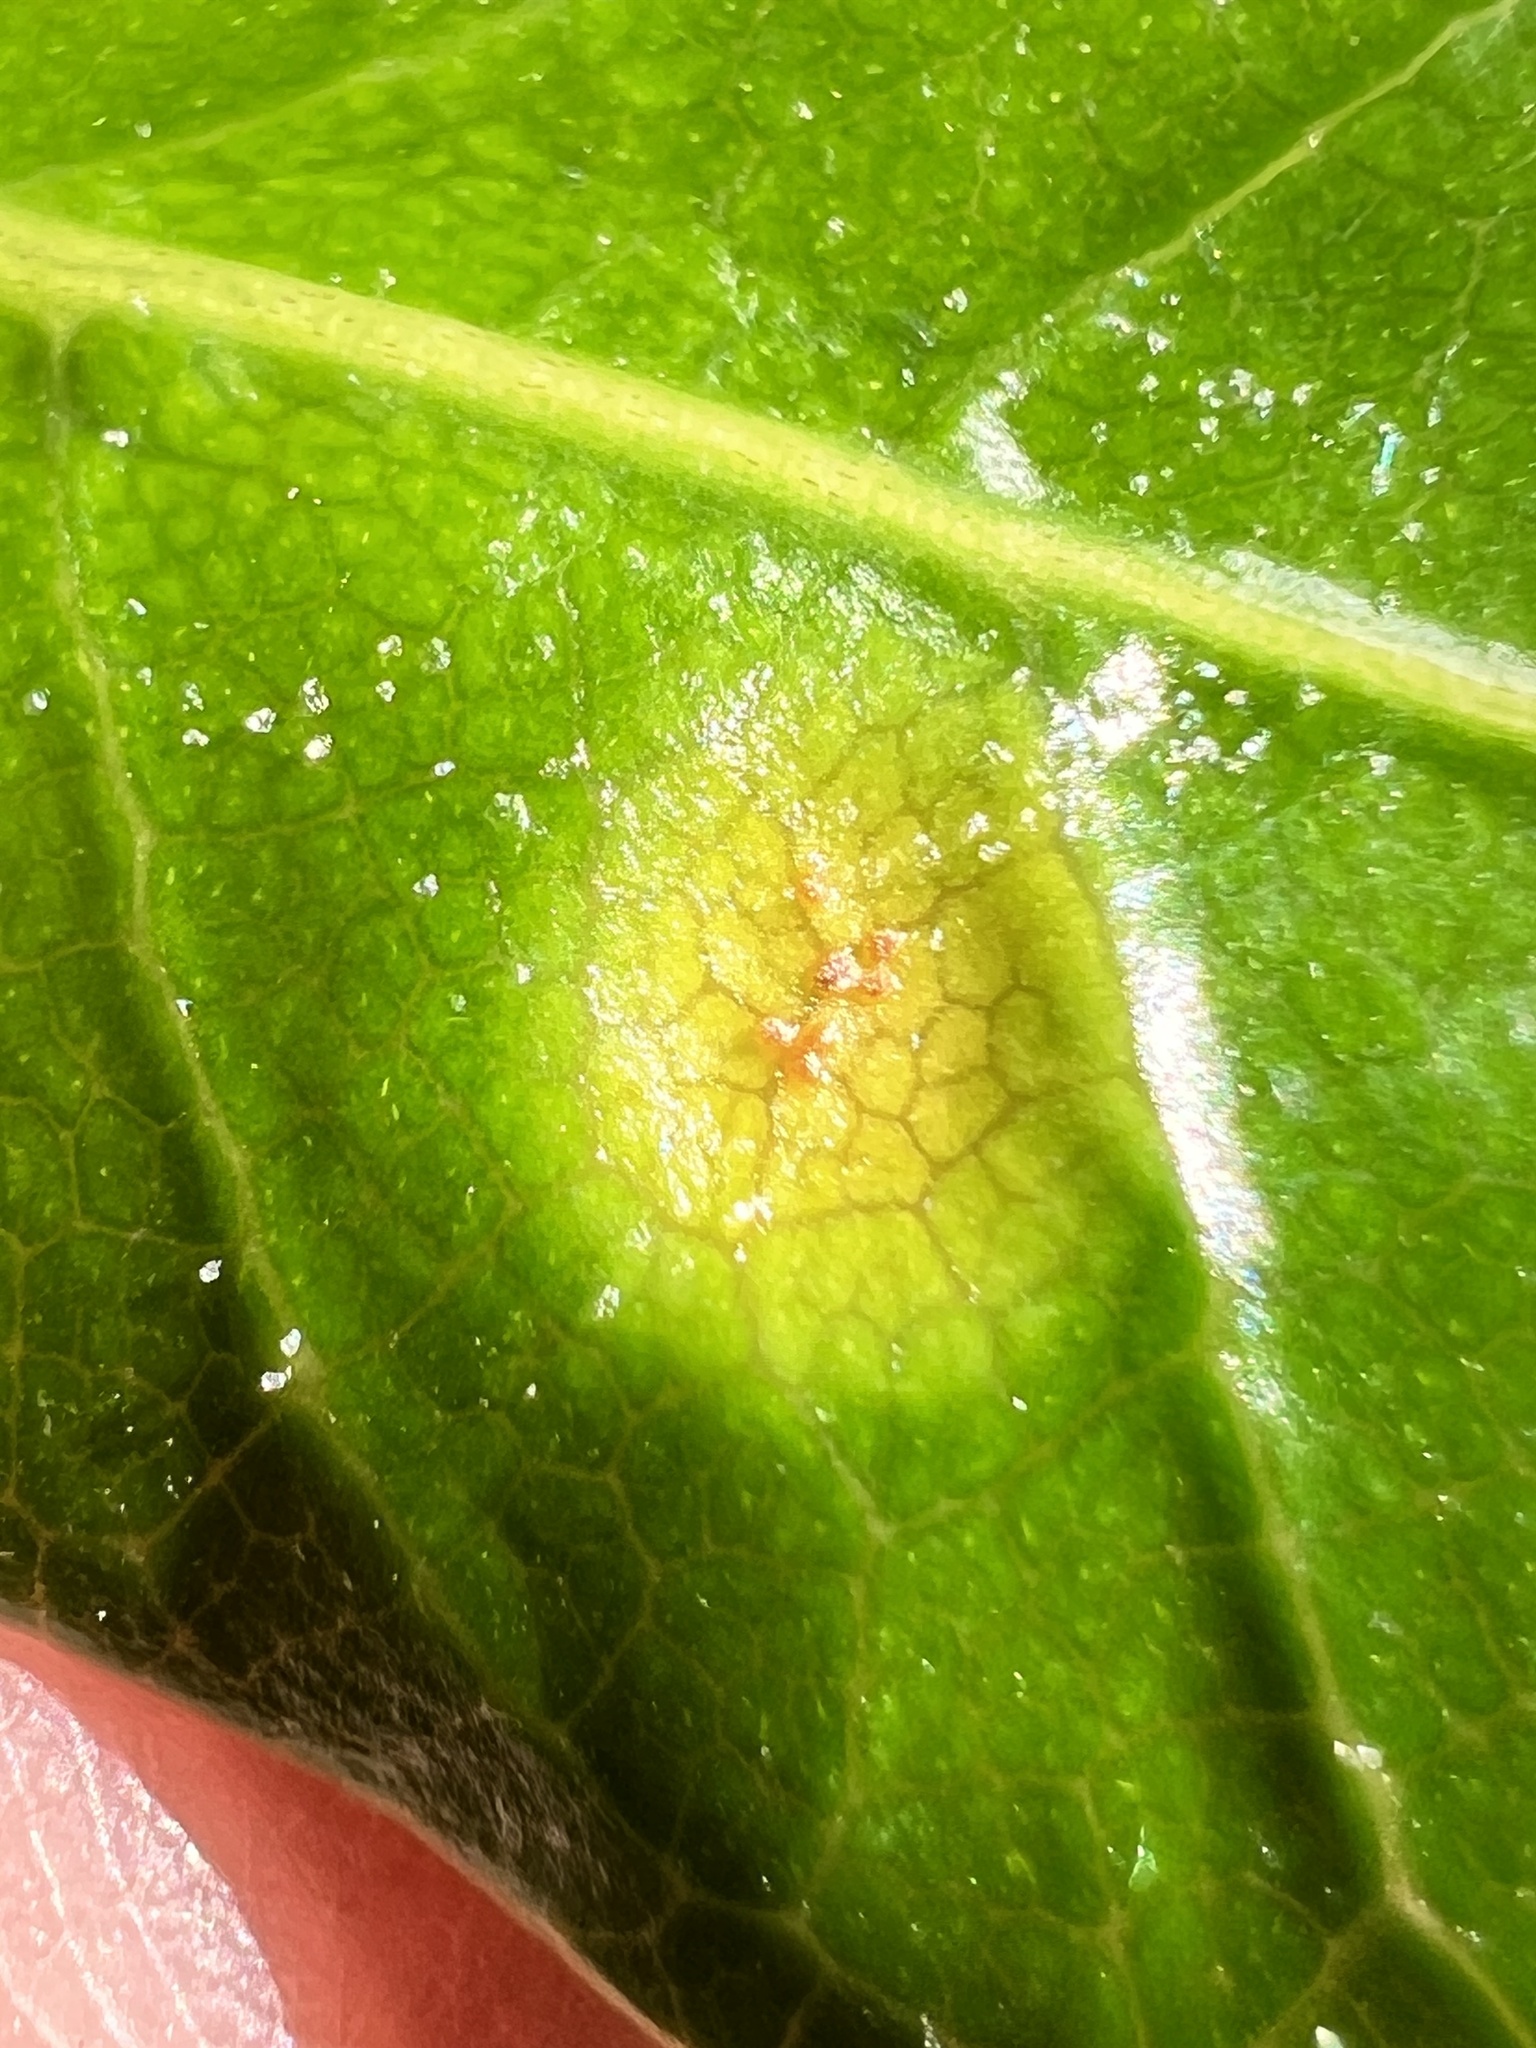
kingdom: Fungi
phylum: Basidiomycota
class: Pucciniomycetes
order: Pucciniales
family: Pucciniaceae
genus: Puccinia
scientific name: Puccinia coprosmae
